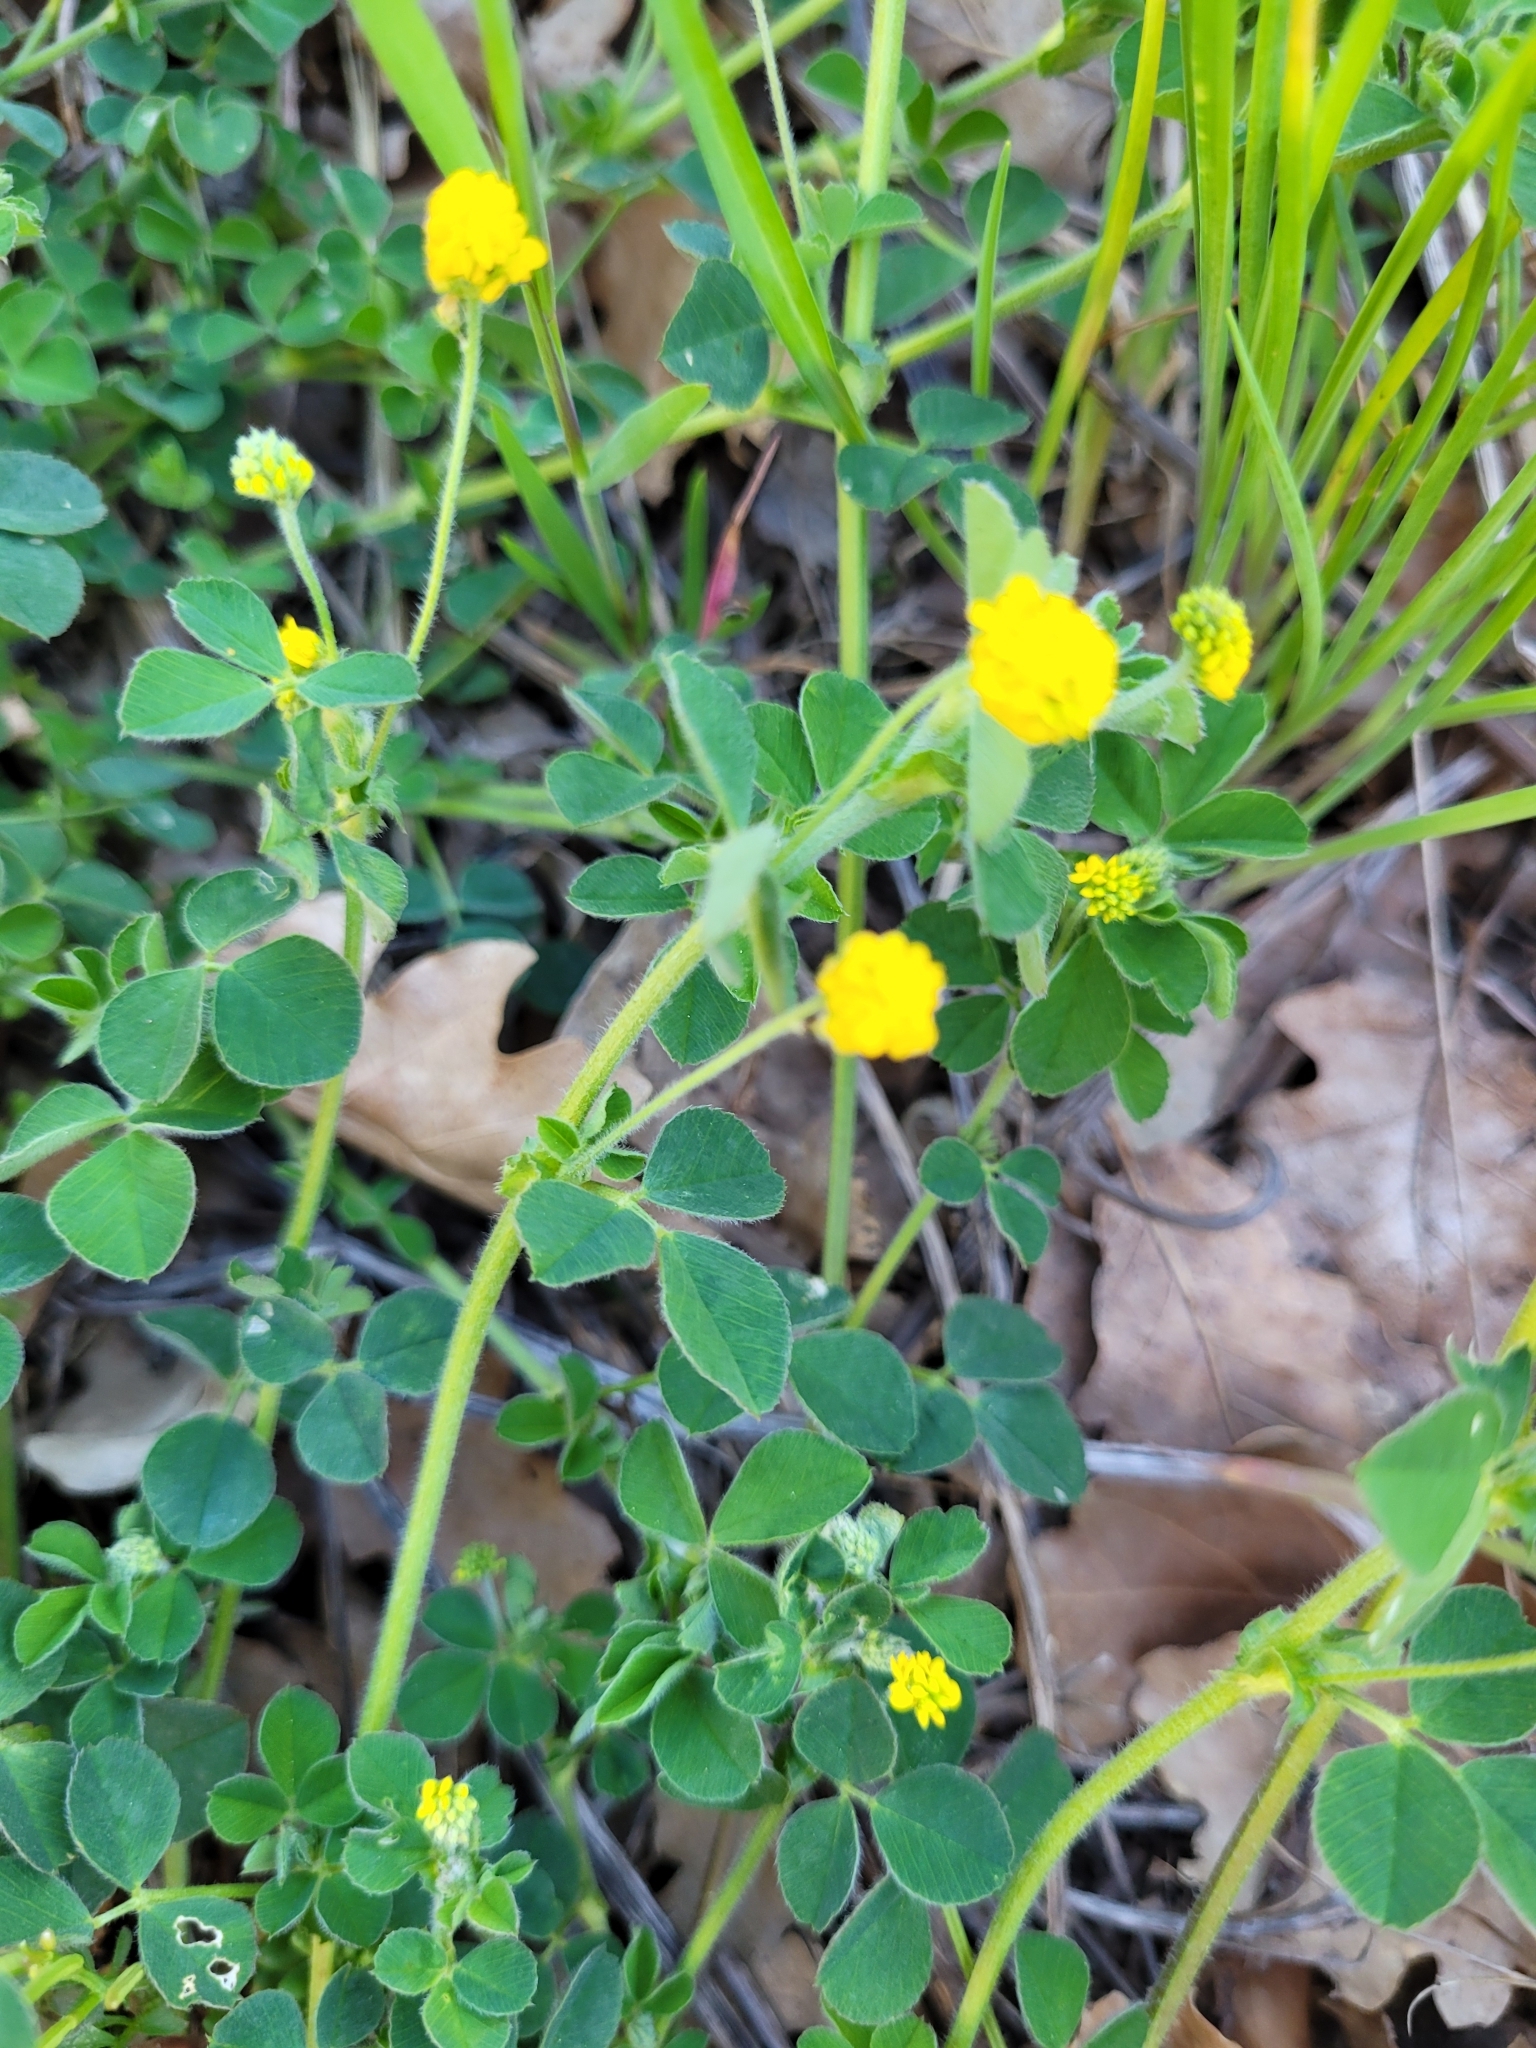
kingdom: Plantae
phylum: Tracheophyta
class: Magnoliopsida
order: Fabales
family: Fabaceae
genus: Medicago
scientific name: Medicago lupulina
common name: Black medick
